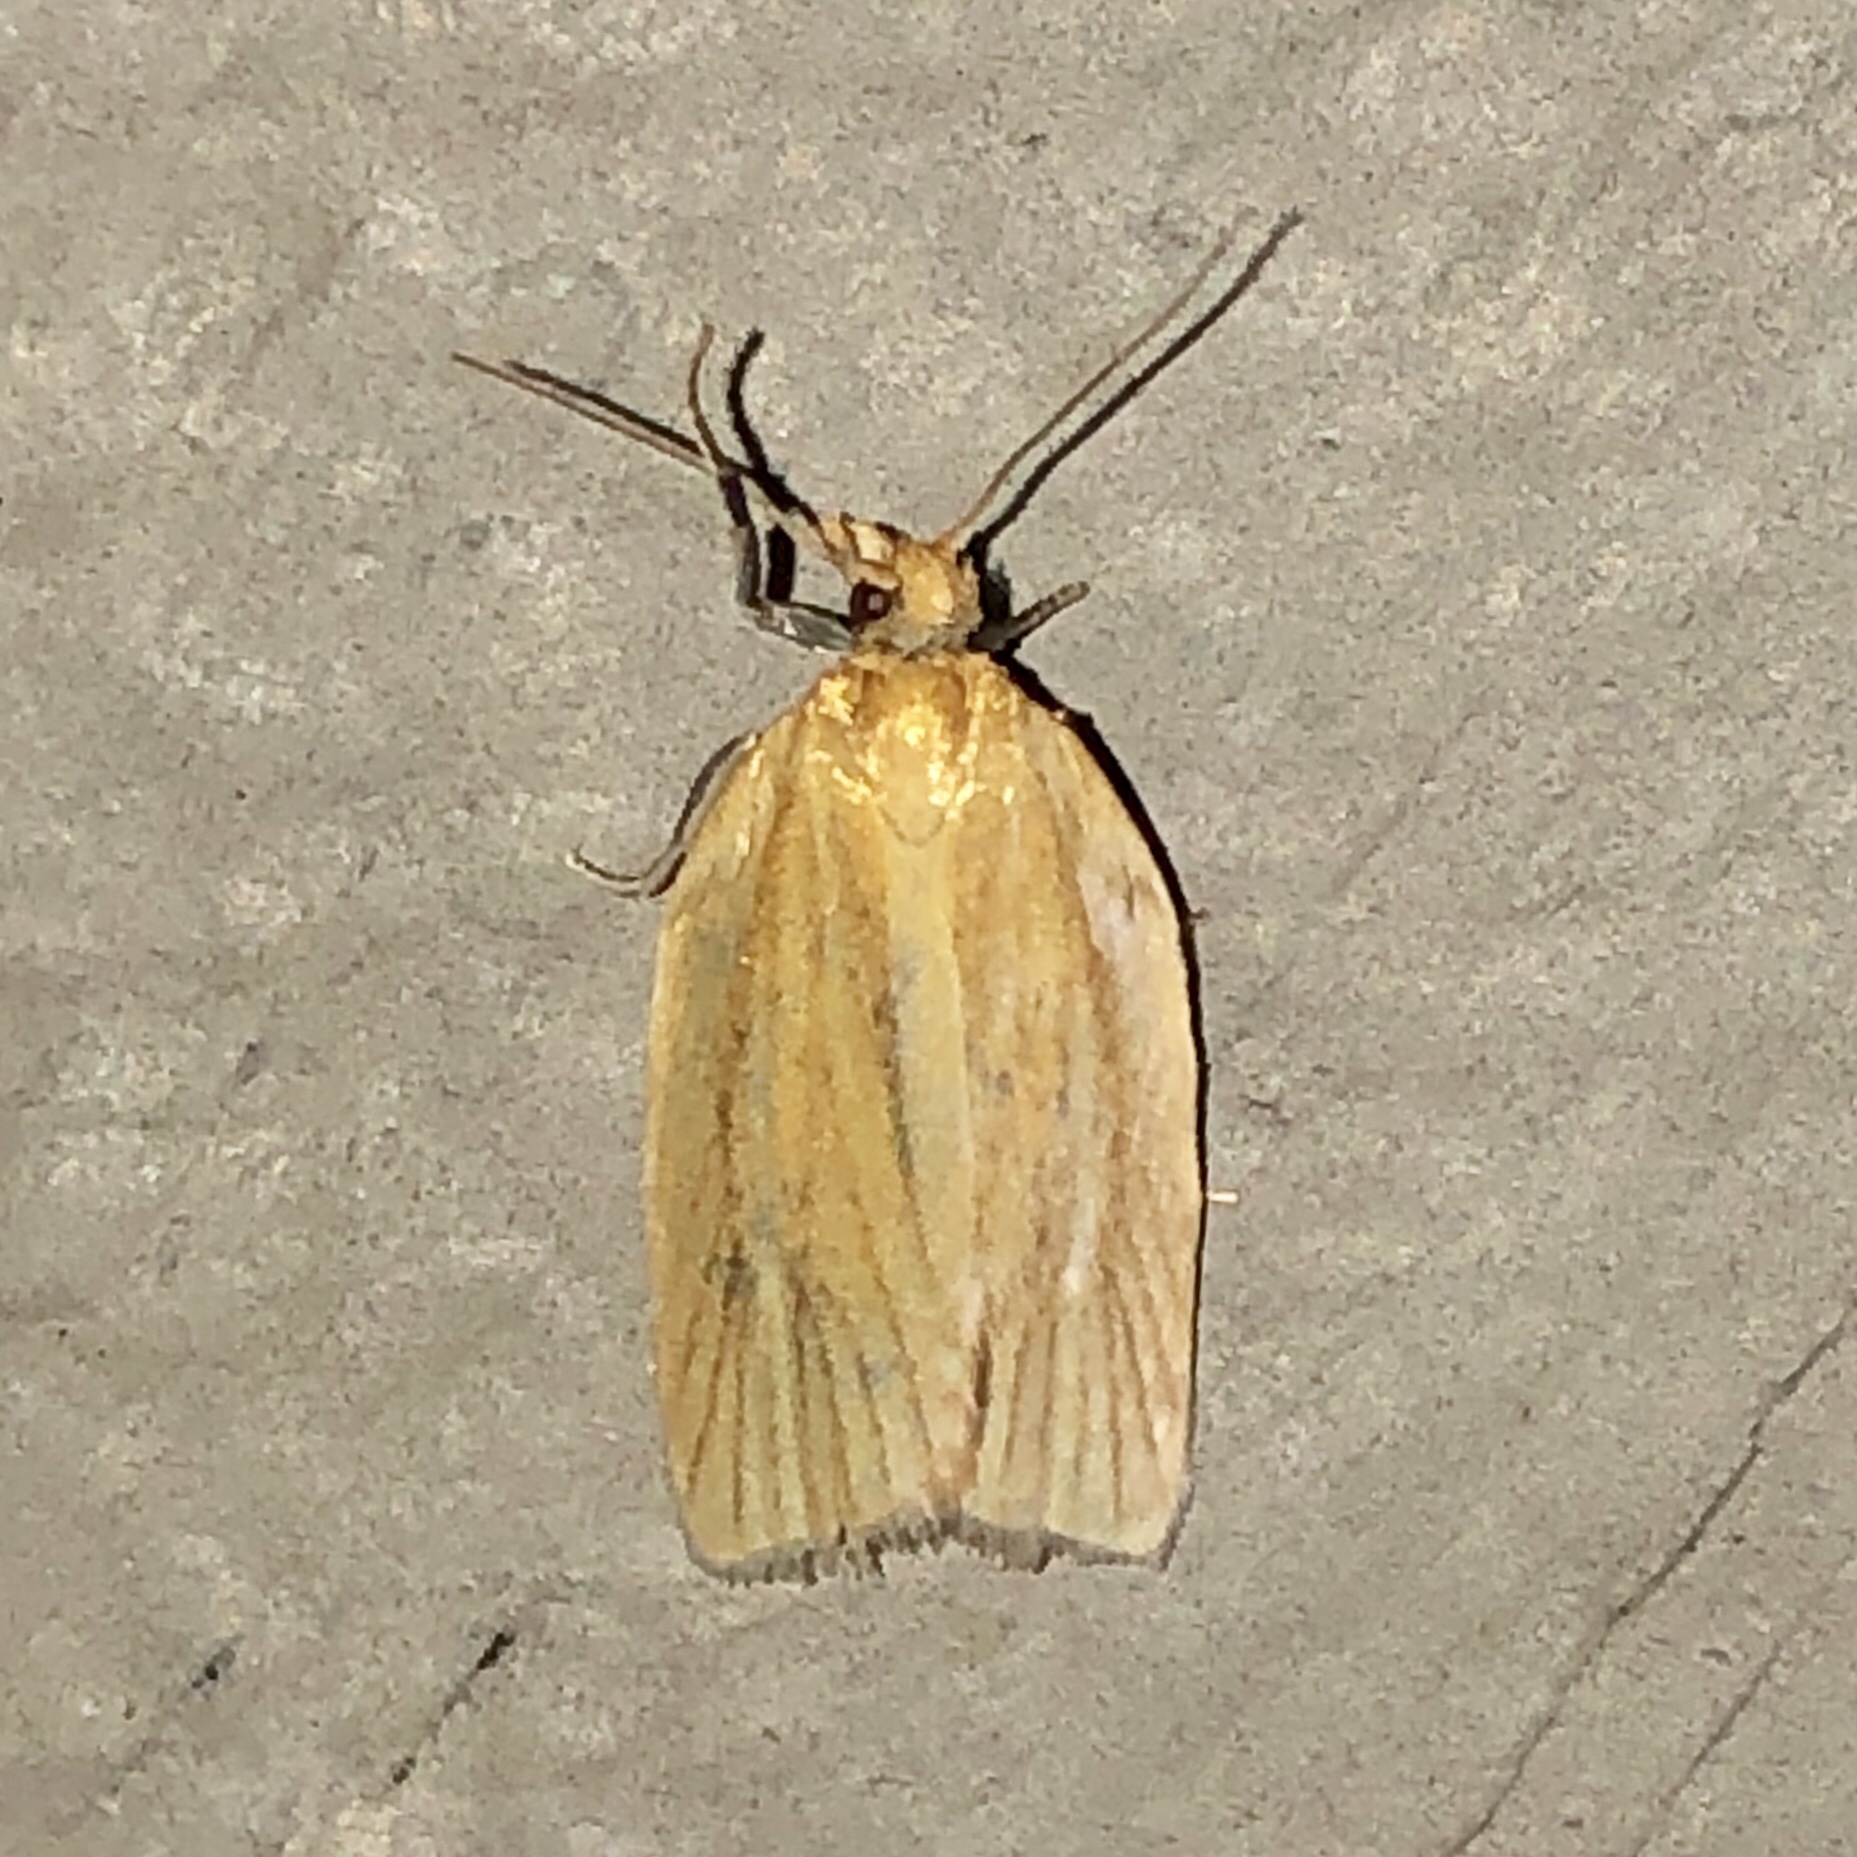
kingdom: Animalia
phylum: Arthropoda
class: Insecta
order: Lepidoptera
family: Tortricidae
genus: Clepsis
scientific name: Clepsis clemensiana
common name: Clemens' clepsis moth
